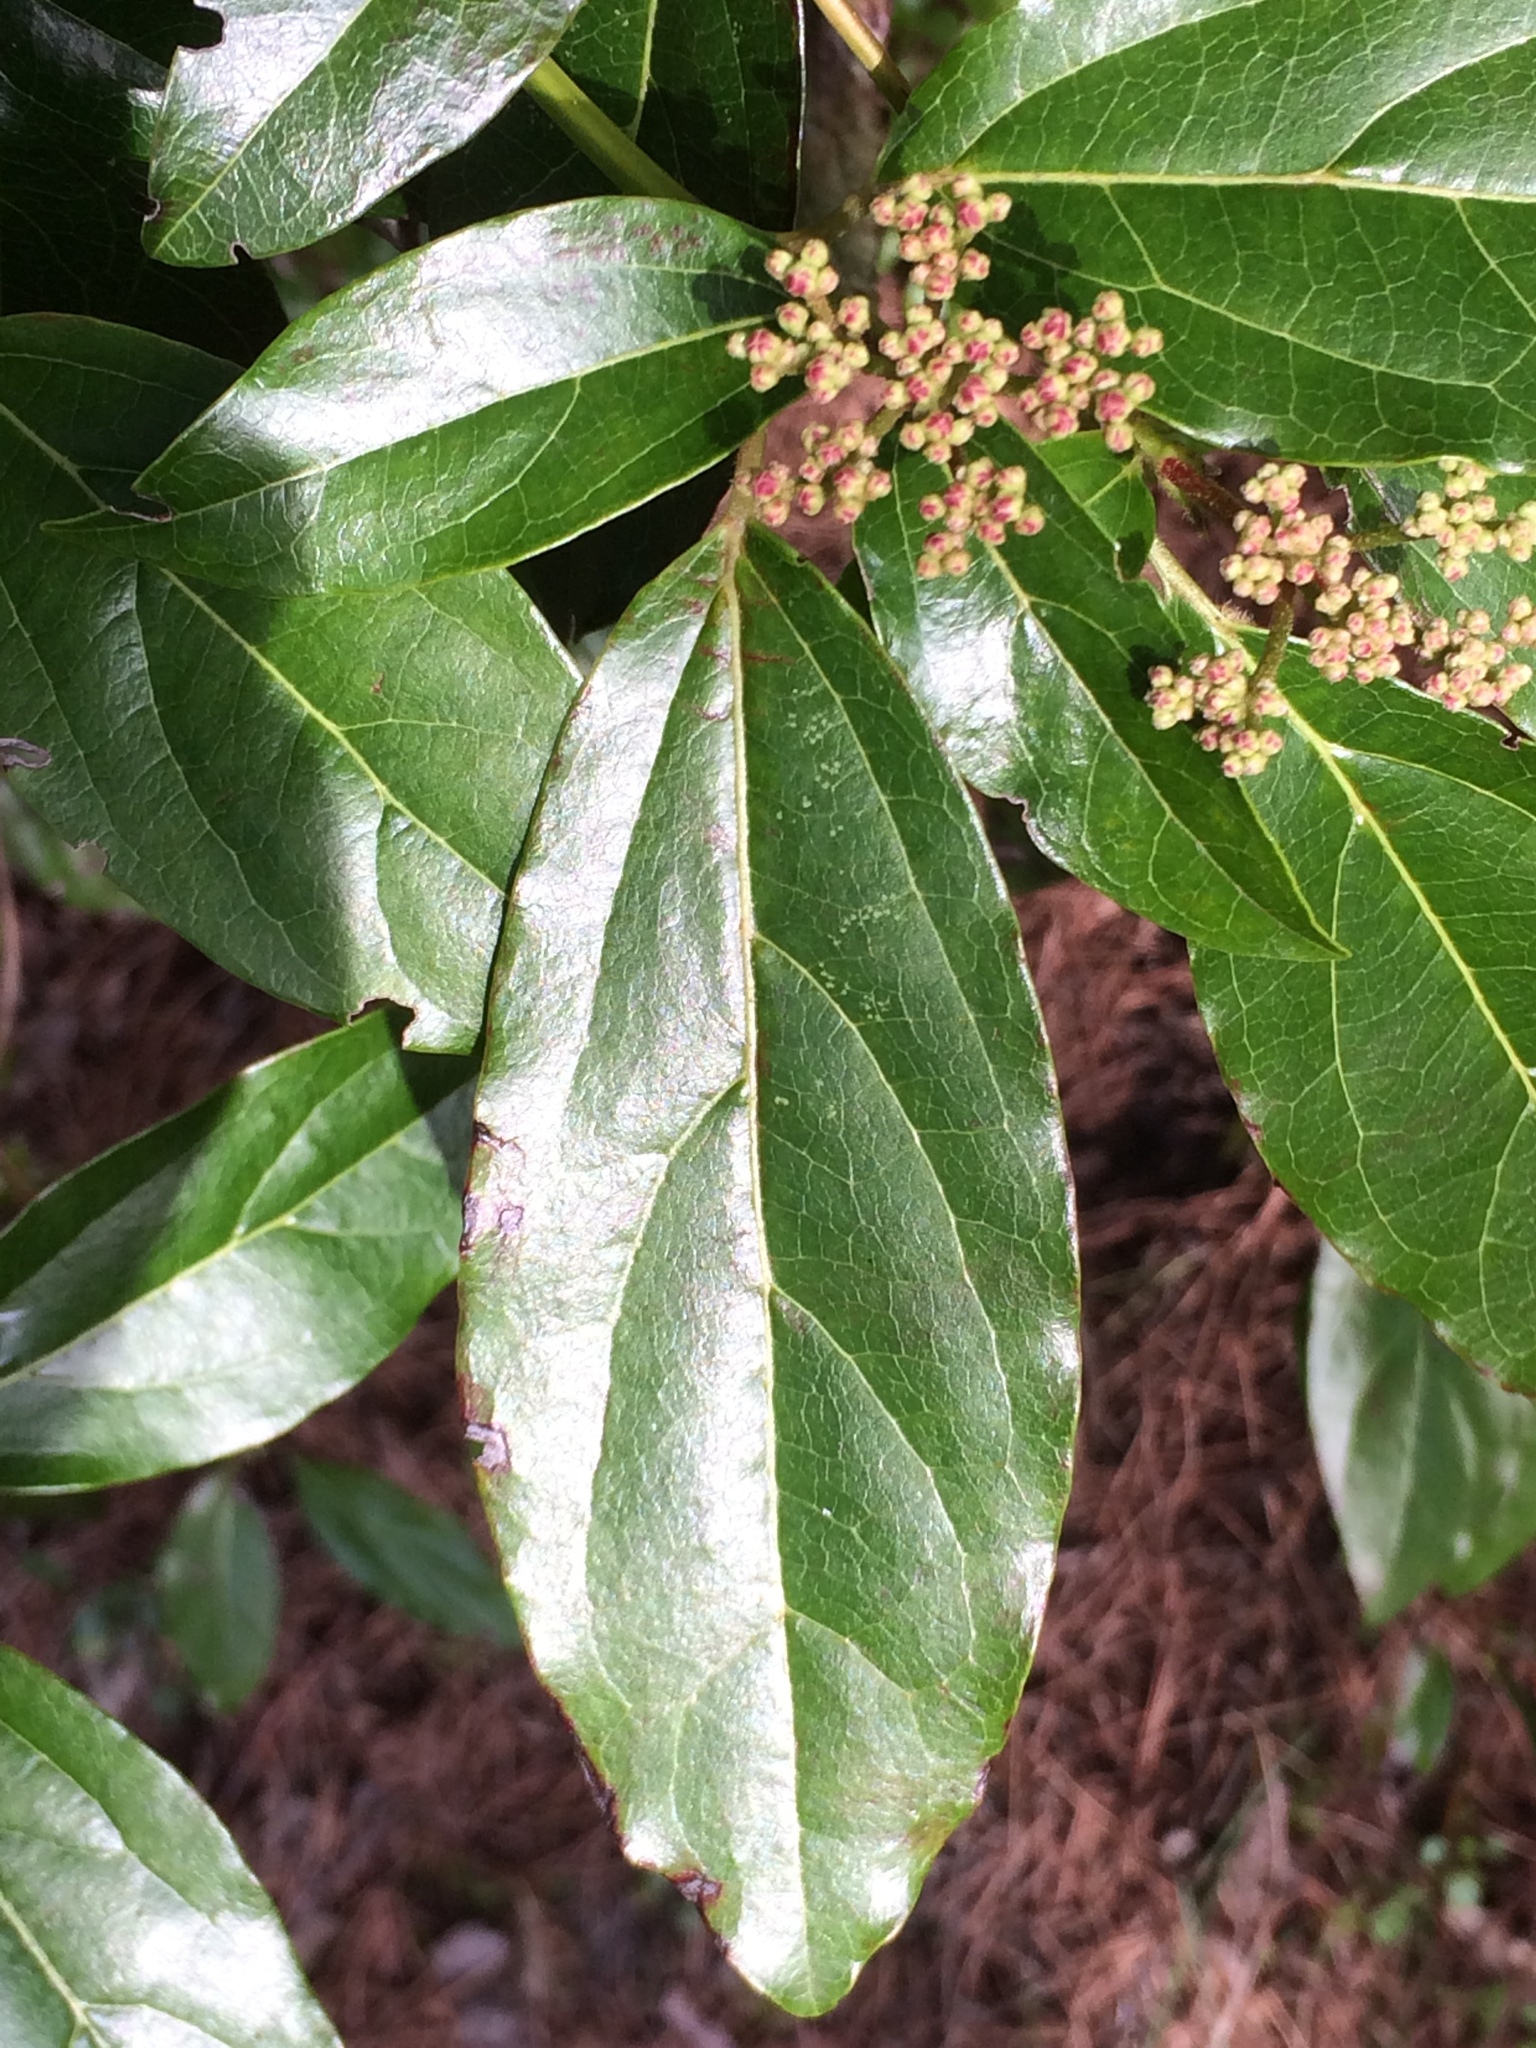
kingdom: Plantae
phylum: Tracheophyta
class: Magnoliopsida
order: Dipsacales
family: Viburnaceae
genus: Viburnum
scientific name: Viburnum tinus
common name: Laurustinus
